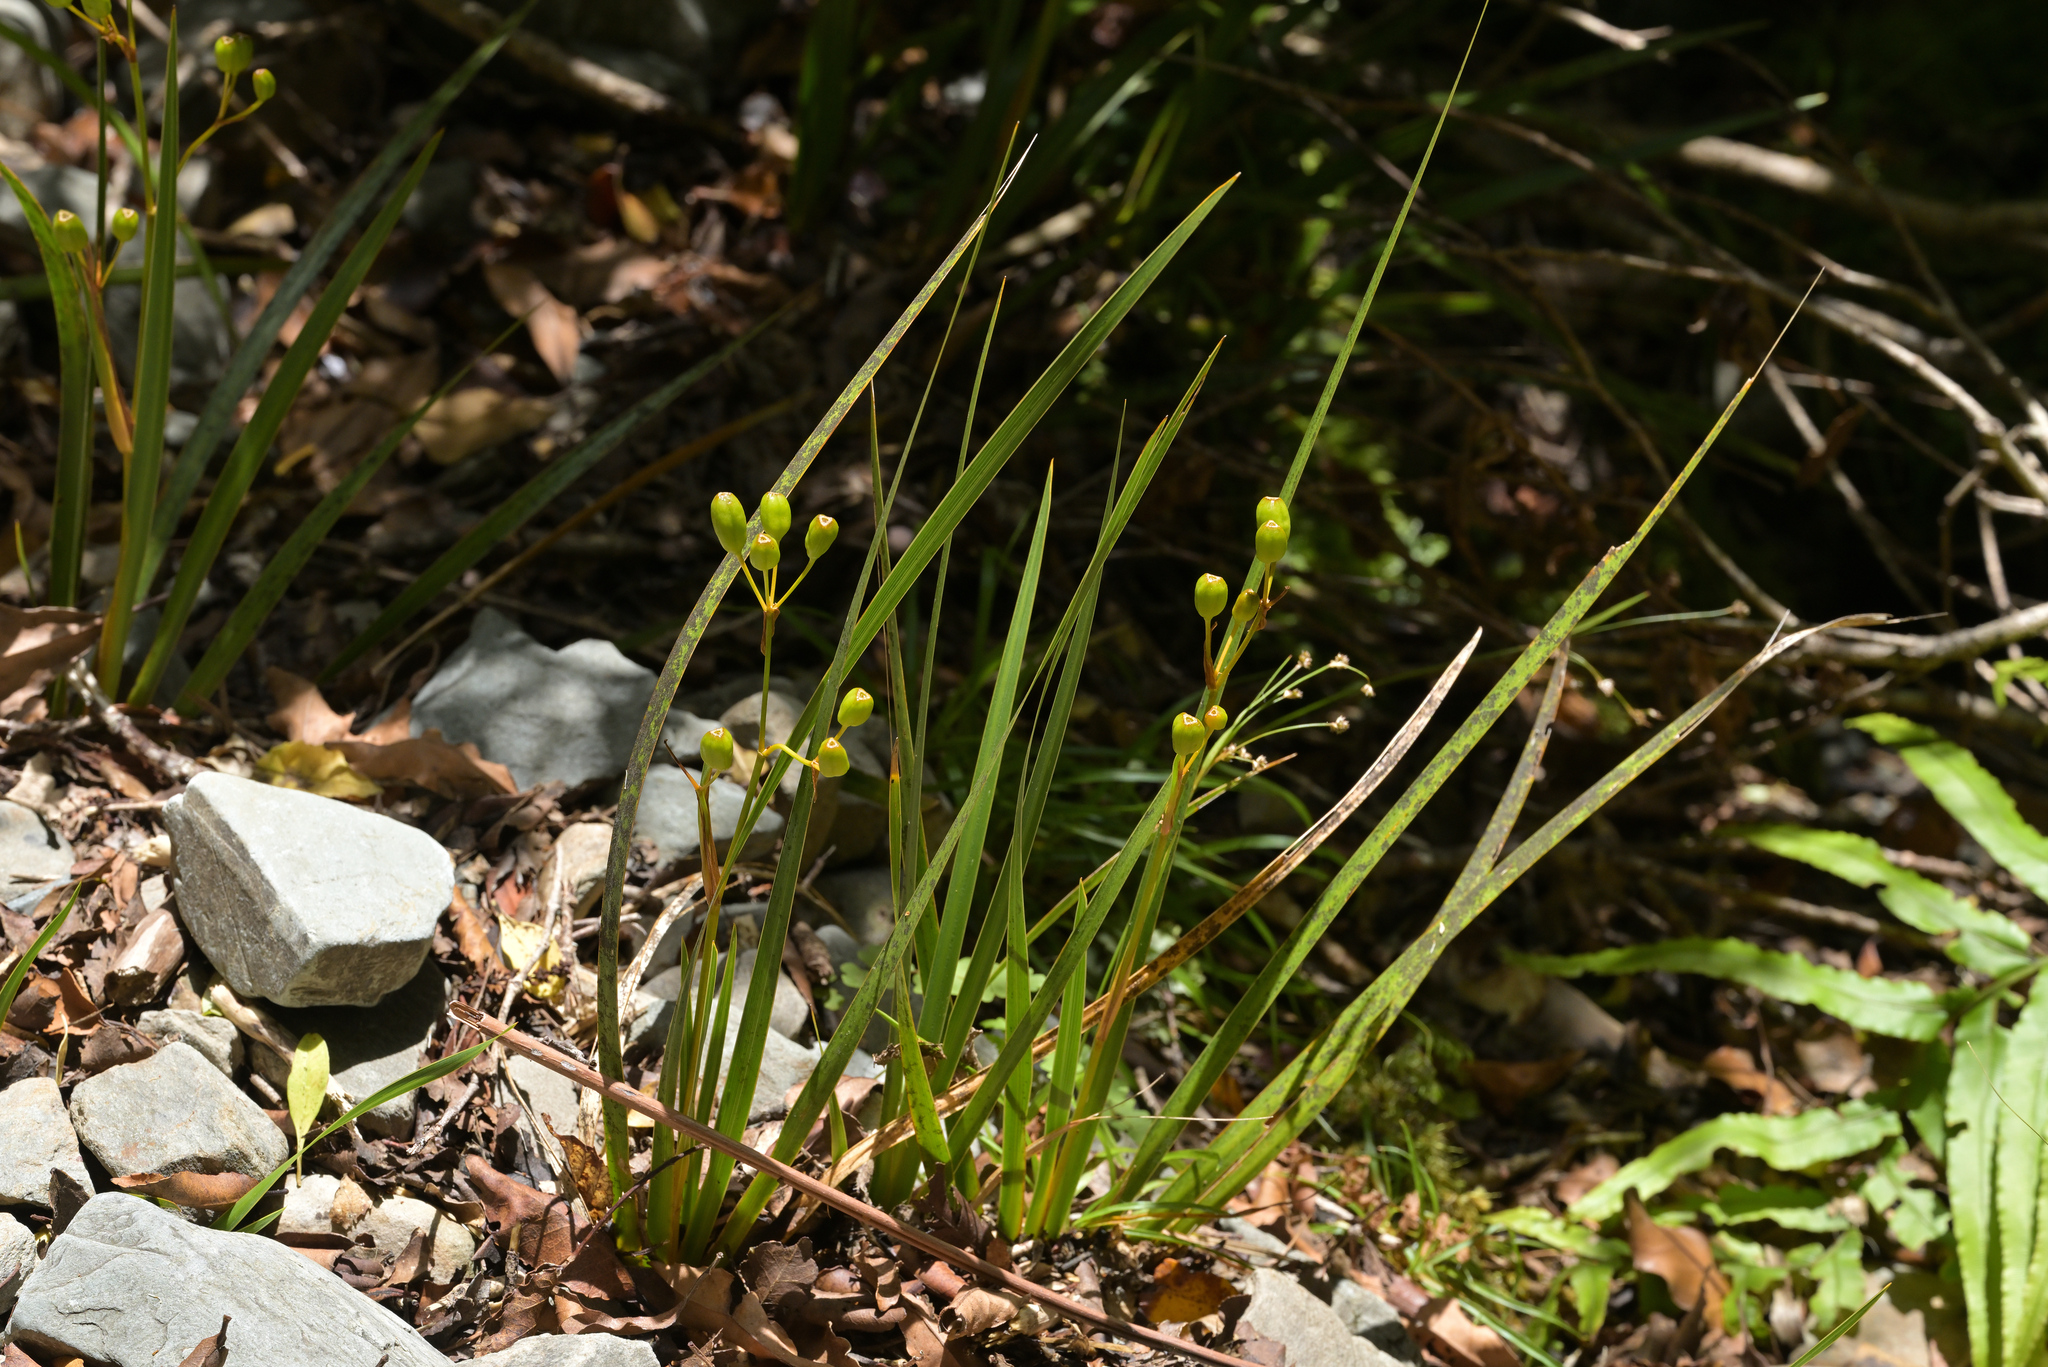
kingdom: Plantae
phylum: Tracheophyta
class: Liliopsida
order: Asparagales
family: Iridaceae
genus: Libertia
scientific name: Libertia ixioides
